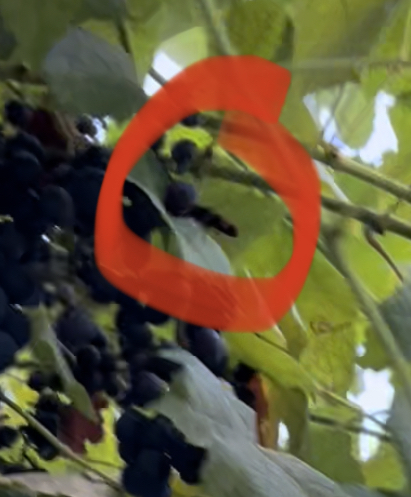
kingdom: Animalia
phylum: Arthropoda
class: Insecta
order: Hymenoptera
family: Vespidae
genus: Vespa
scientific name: Vespa velutina
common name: Asian hornet
